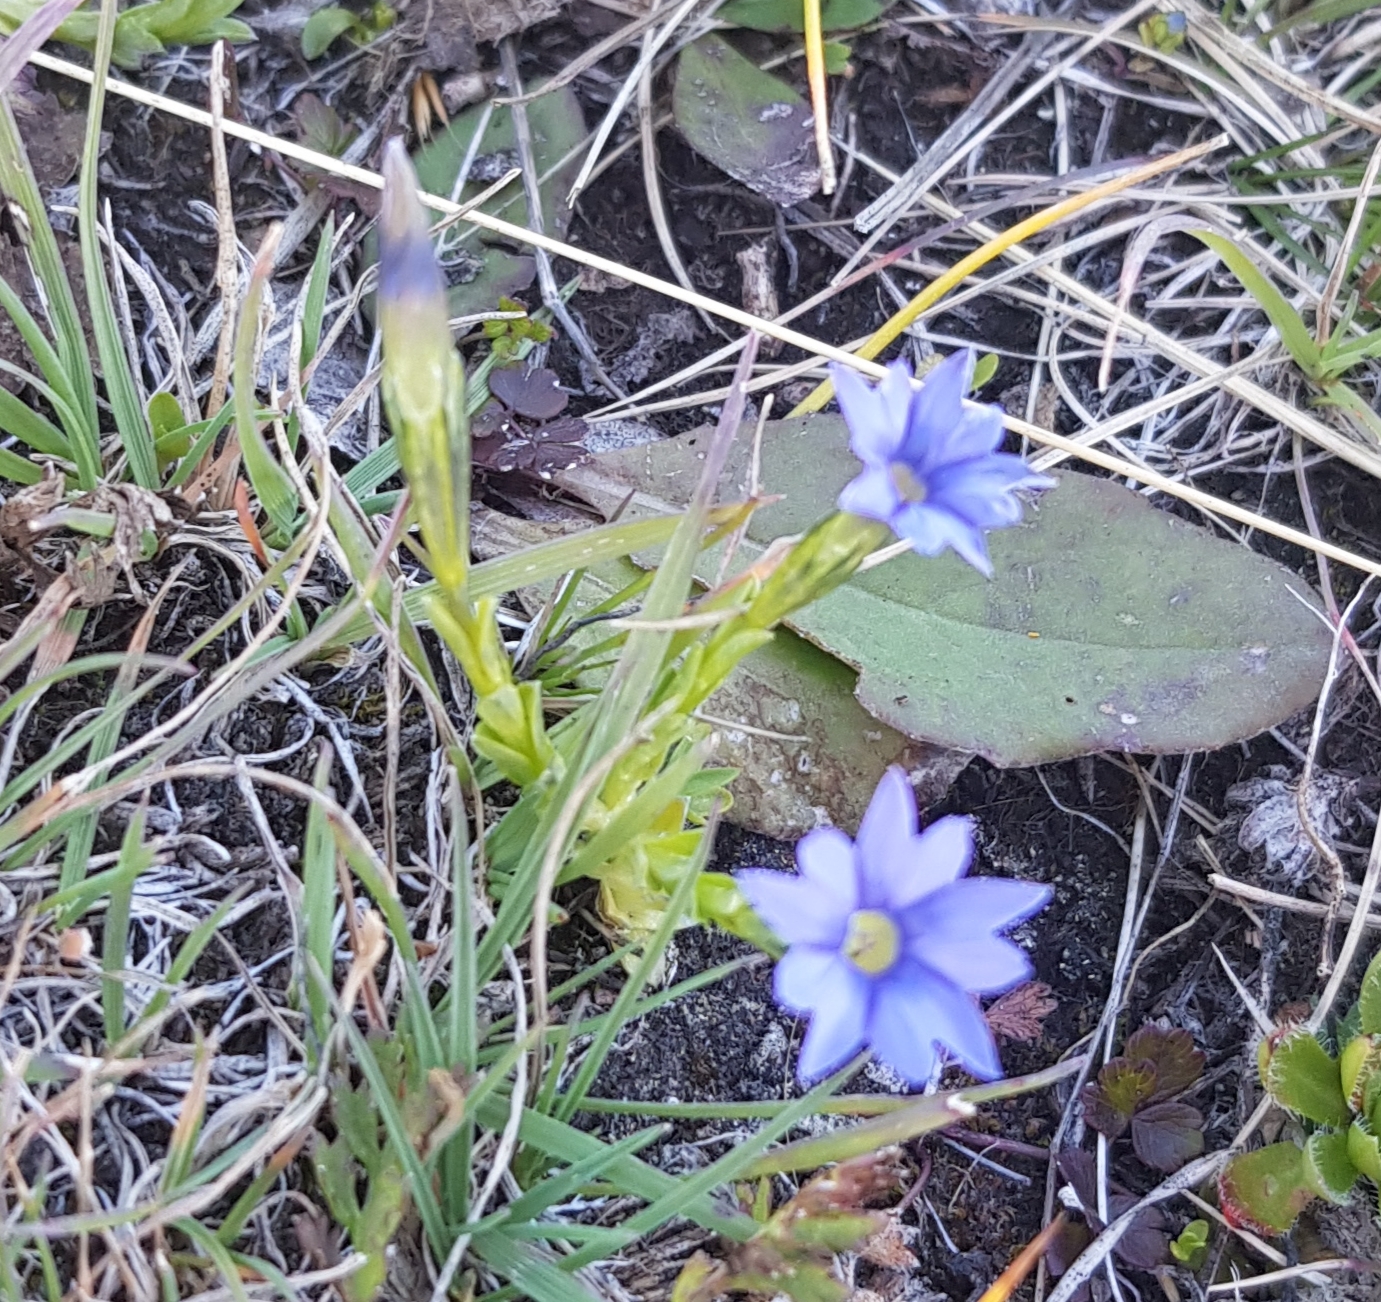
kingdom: Plantae
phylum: Tracheophyta
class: Magnoliopsida
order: Gentianales
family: Gentianaceae
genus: Gentiana
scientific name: Gentiana prostrata
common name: Moss gentian
